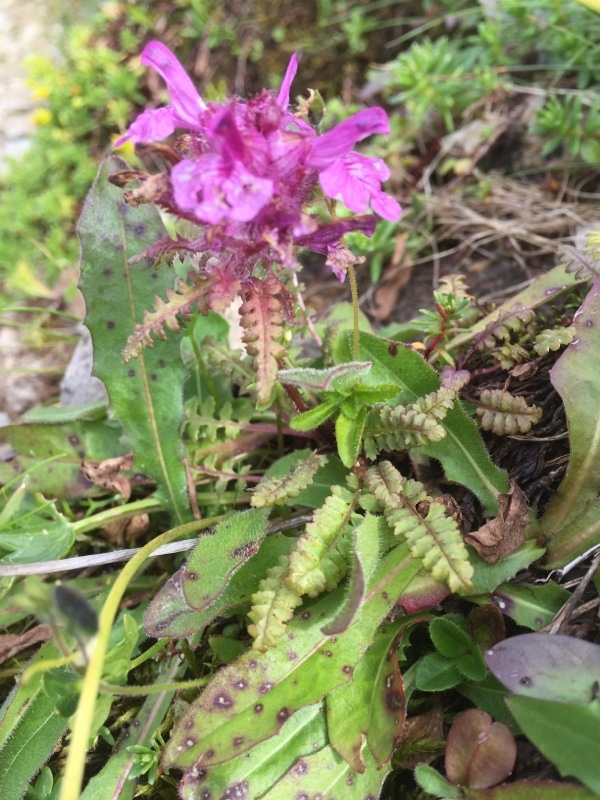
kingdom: Plantae
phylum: Tracheophyta
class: Magnoliopsida
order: Lamiales
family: Orobanchaceae
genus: Pedicularis
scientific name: Pedicularis verticillata
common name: Whorled lousewort
